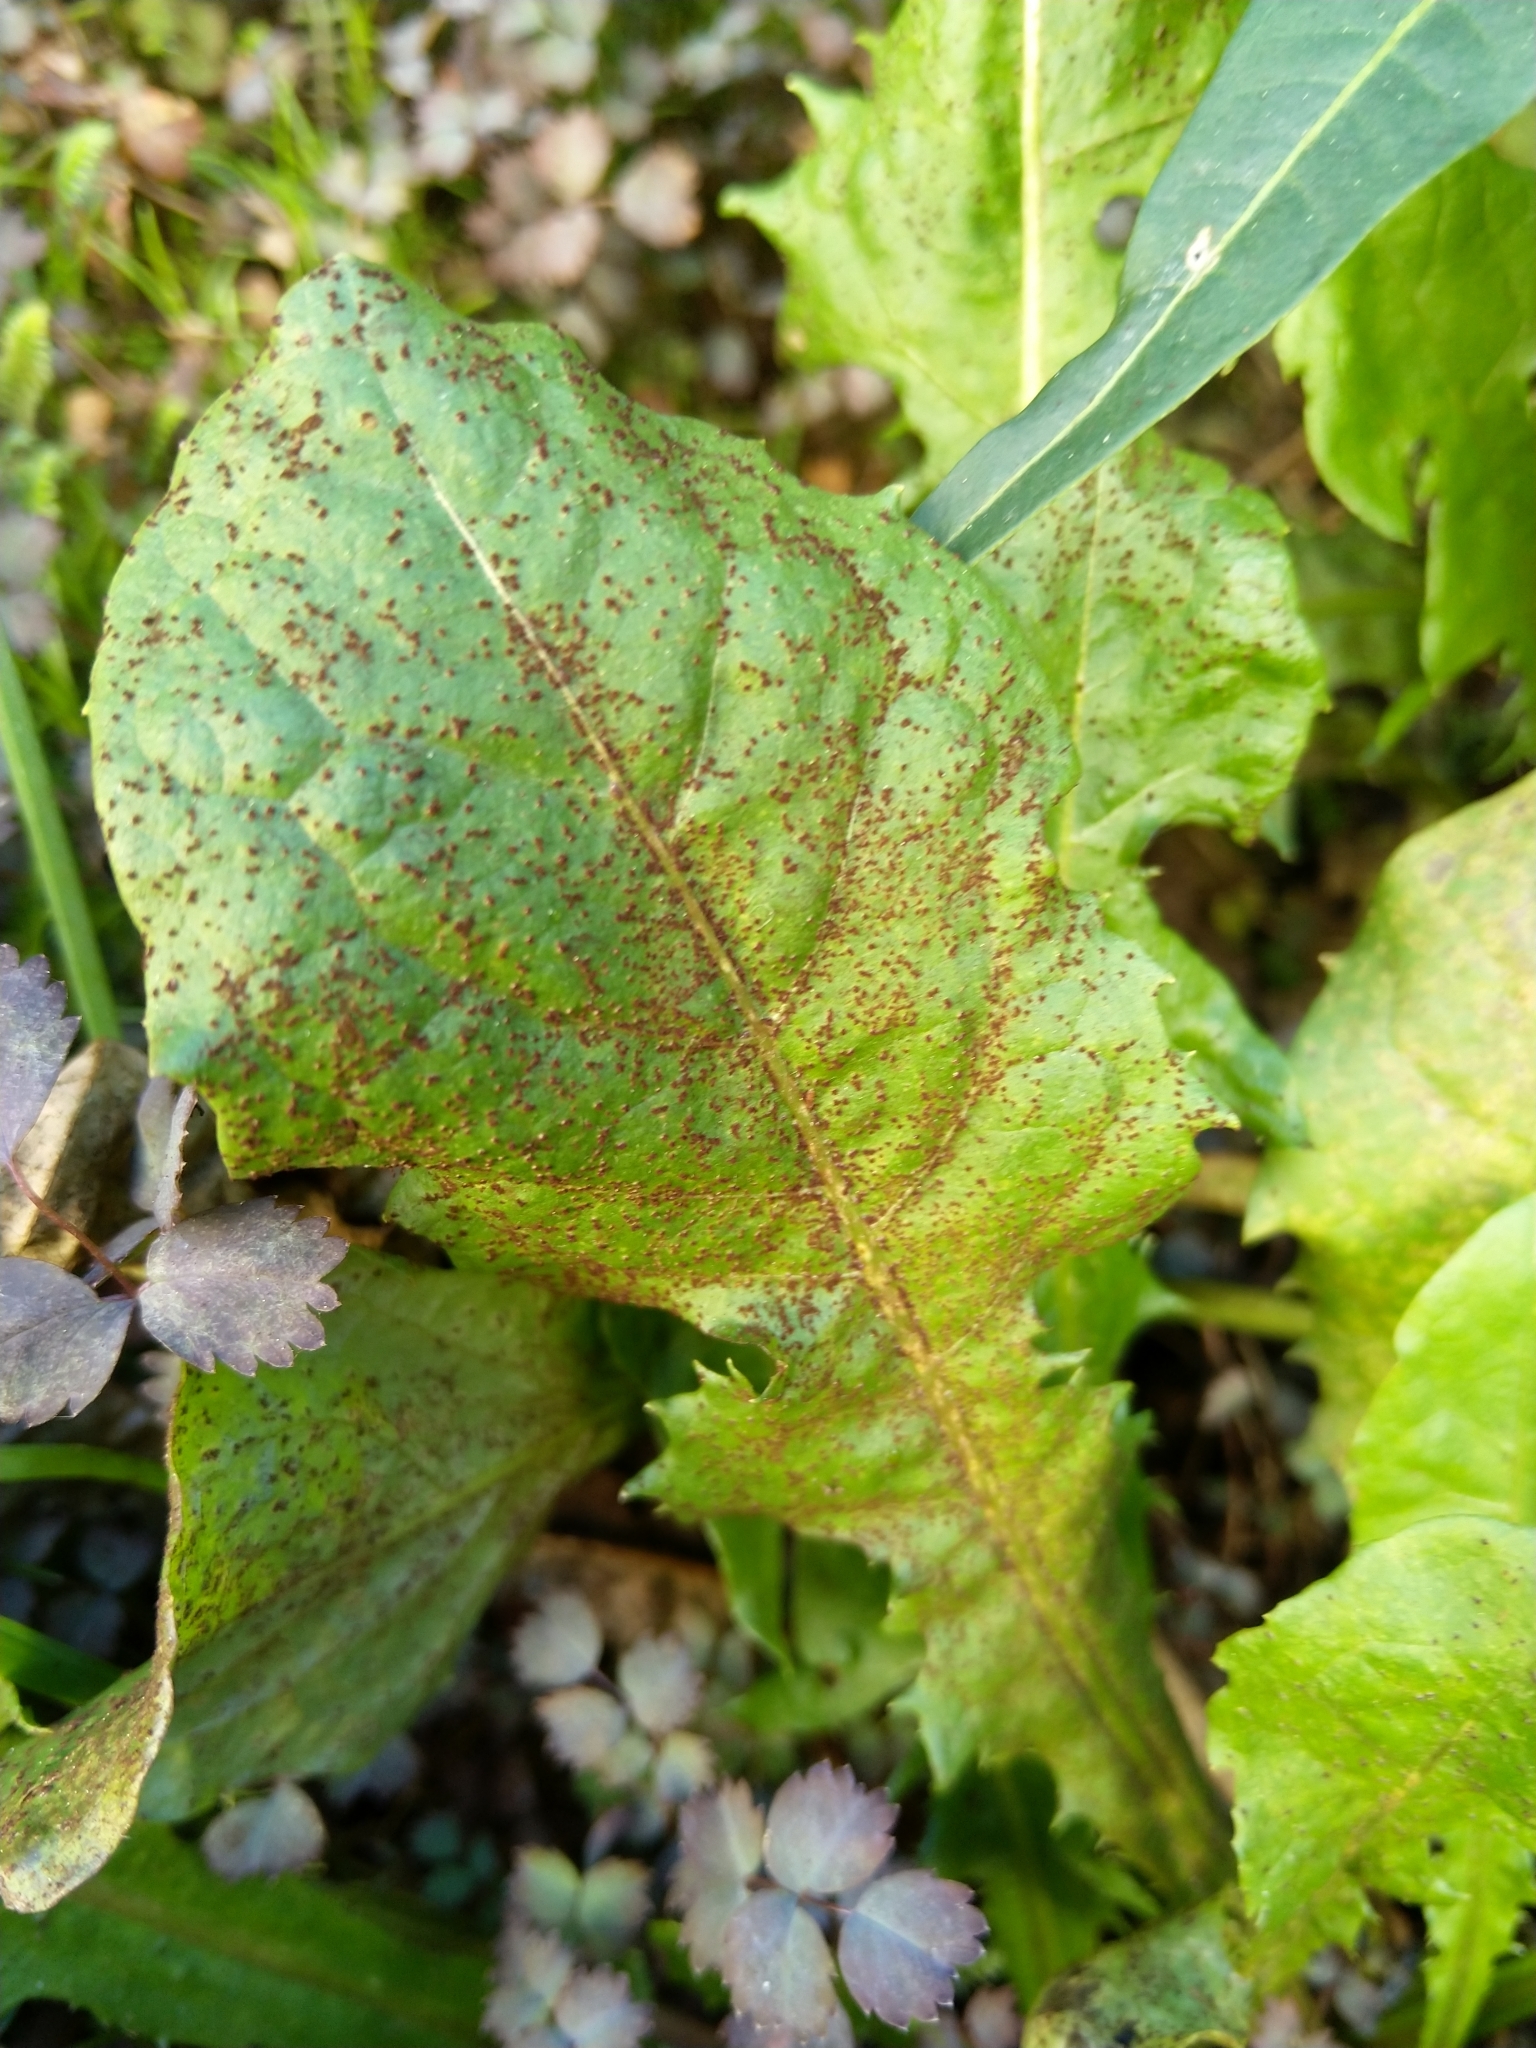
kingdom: Fungi
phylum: Basidiomycota
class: Pucciniomycetes
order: Pucciniales
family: Pucciniaceae
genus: Puccinia
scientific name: Puccinia hieracii
